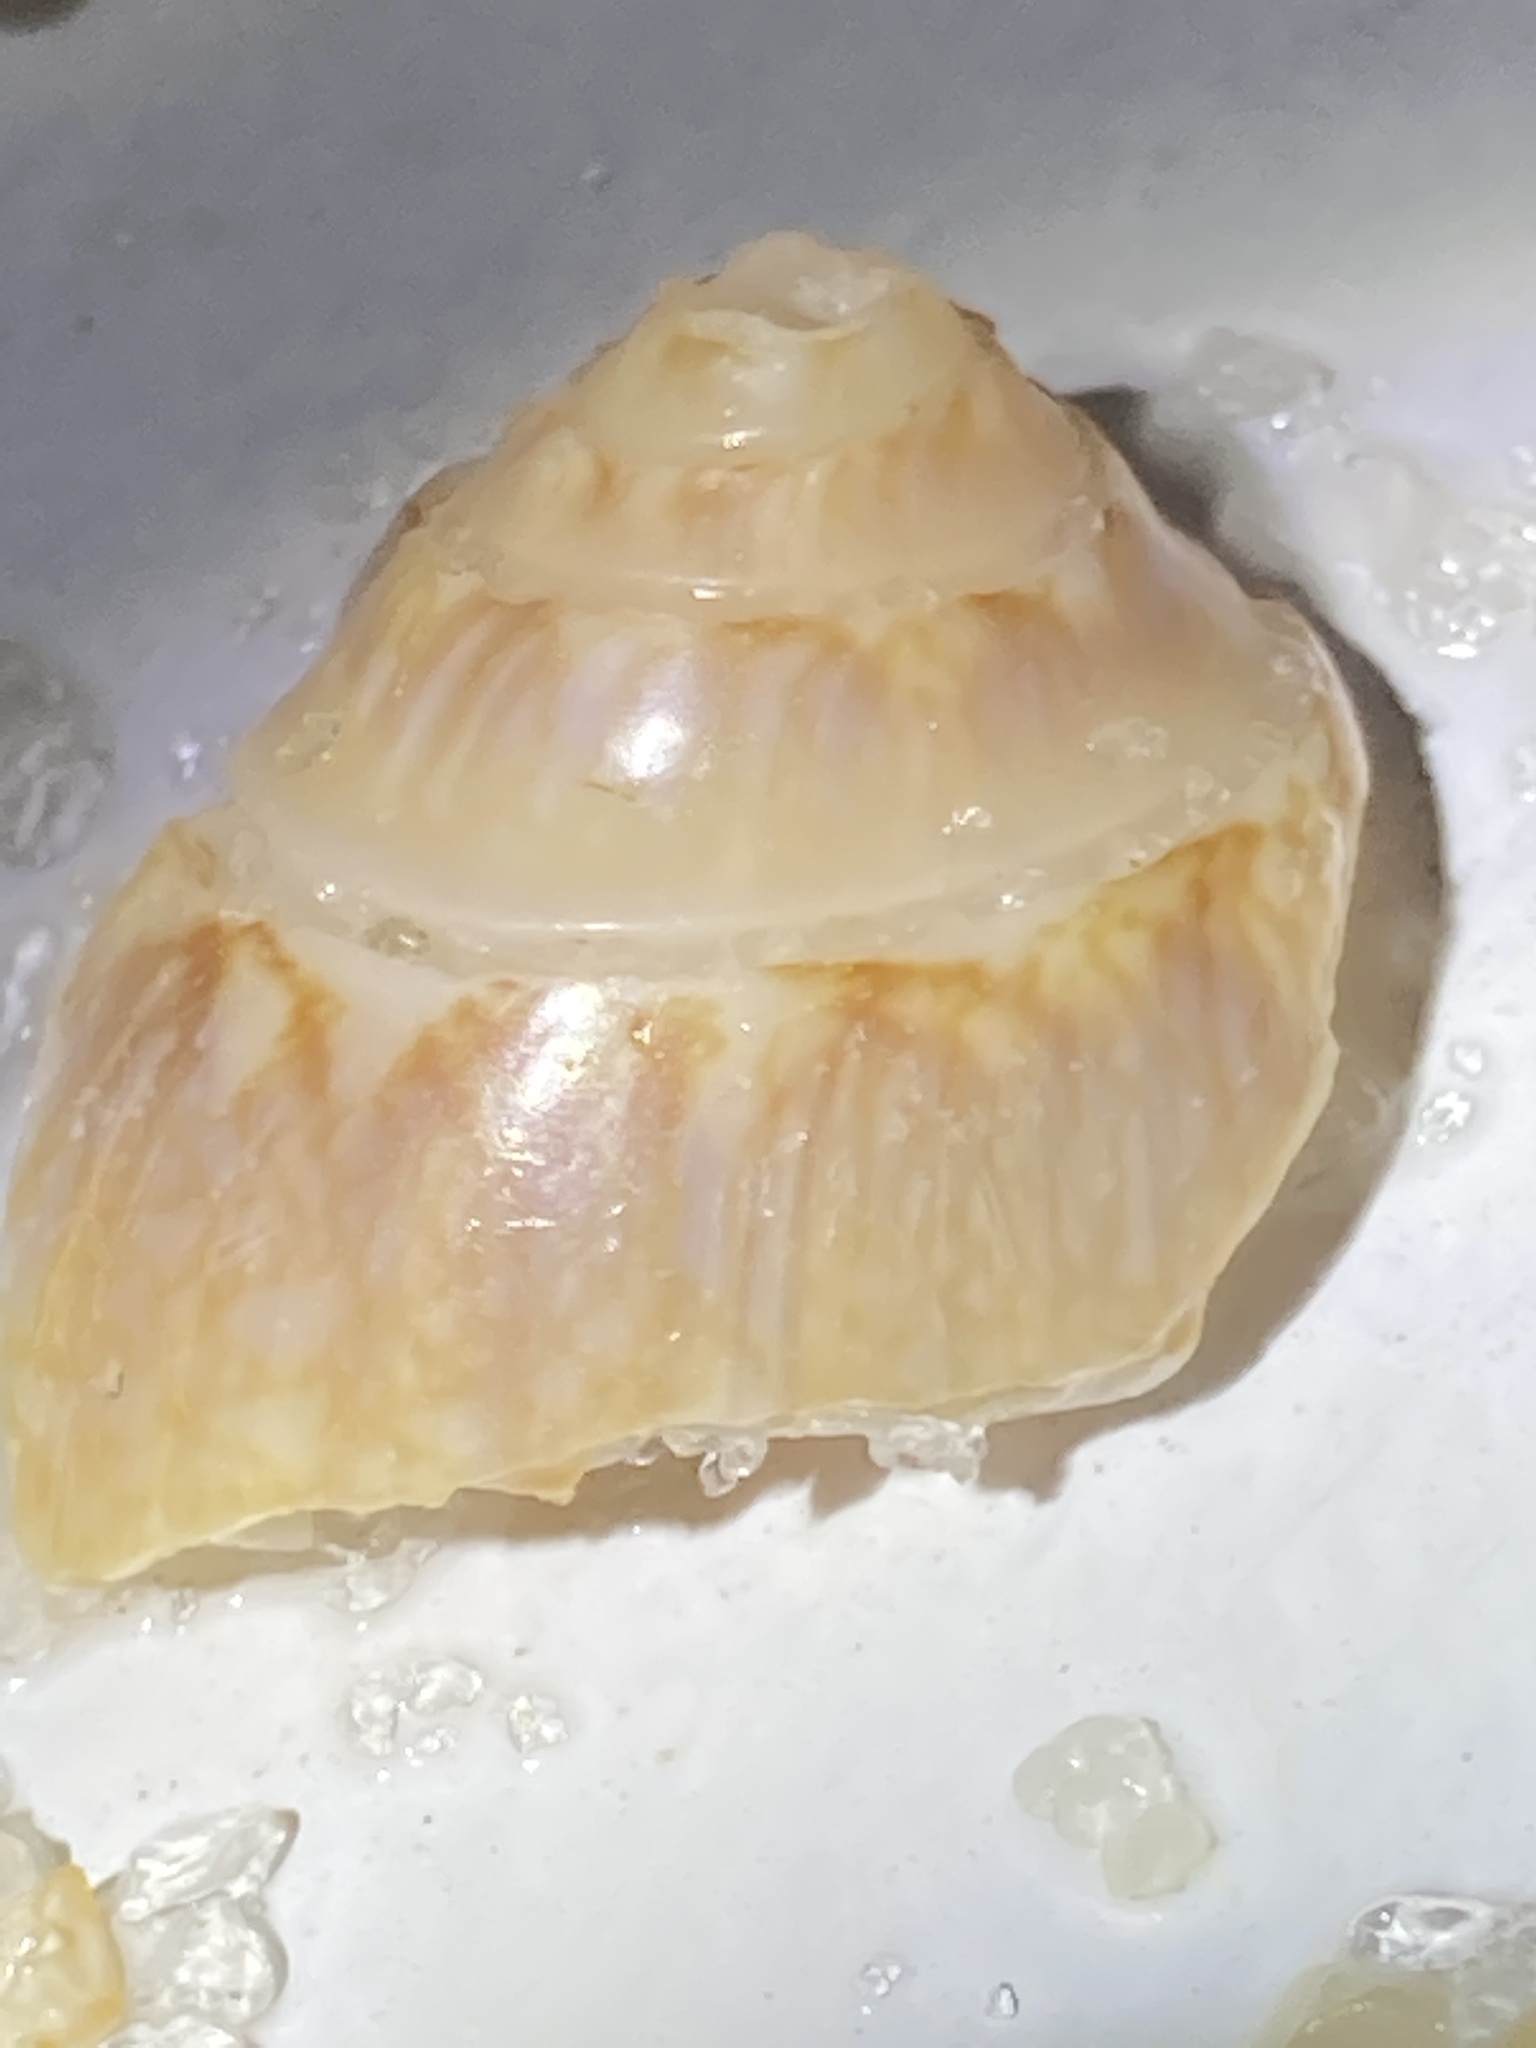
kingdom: Animalia
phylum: Mollusca
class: Gastropoda
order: Neogastropoda
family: Olividae
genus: Oliva
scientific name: Oliva sayana
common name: Lettered olive
